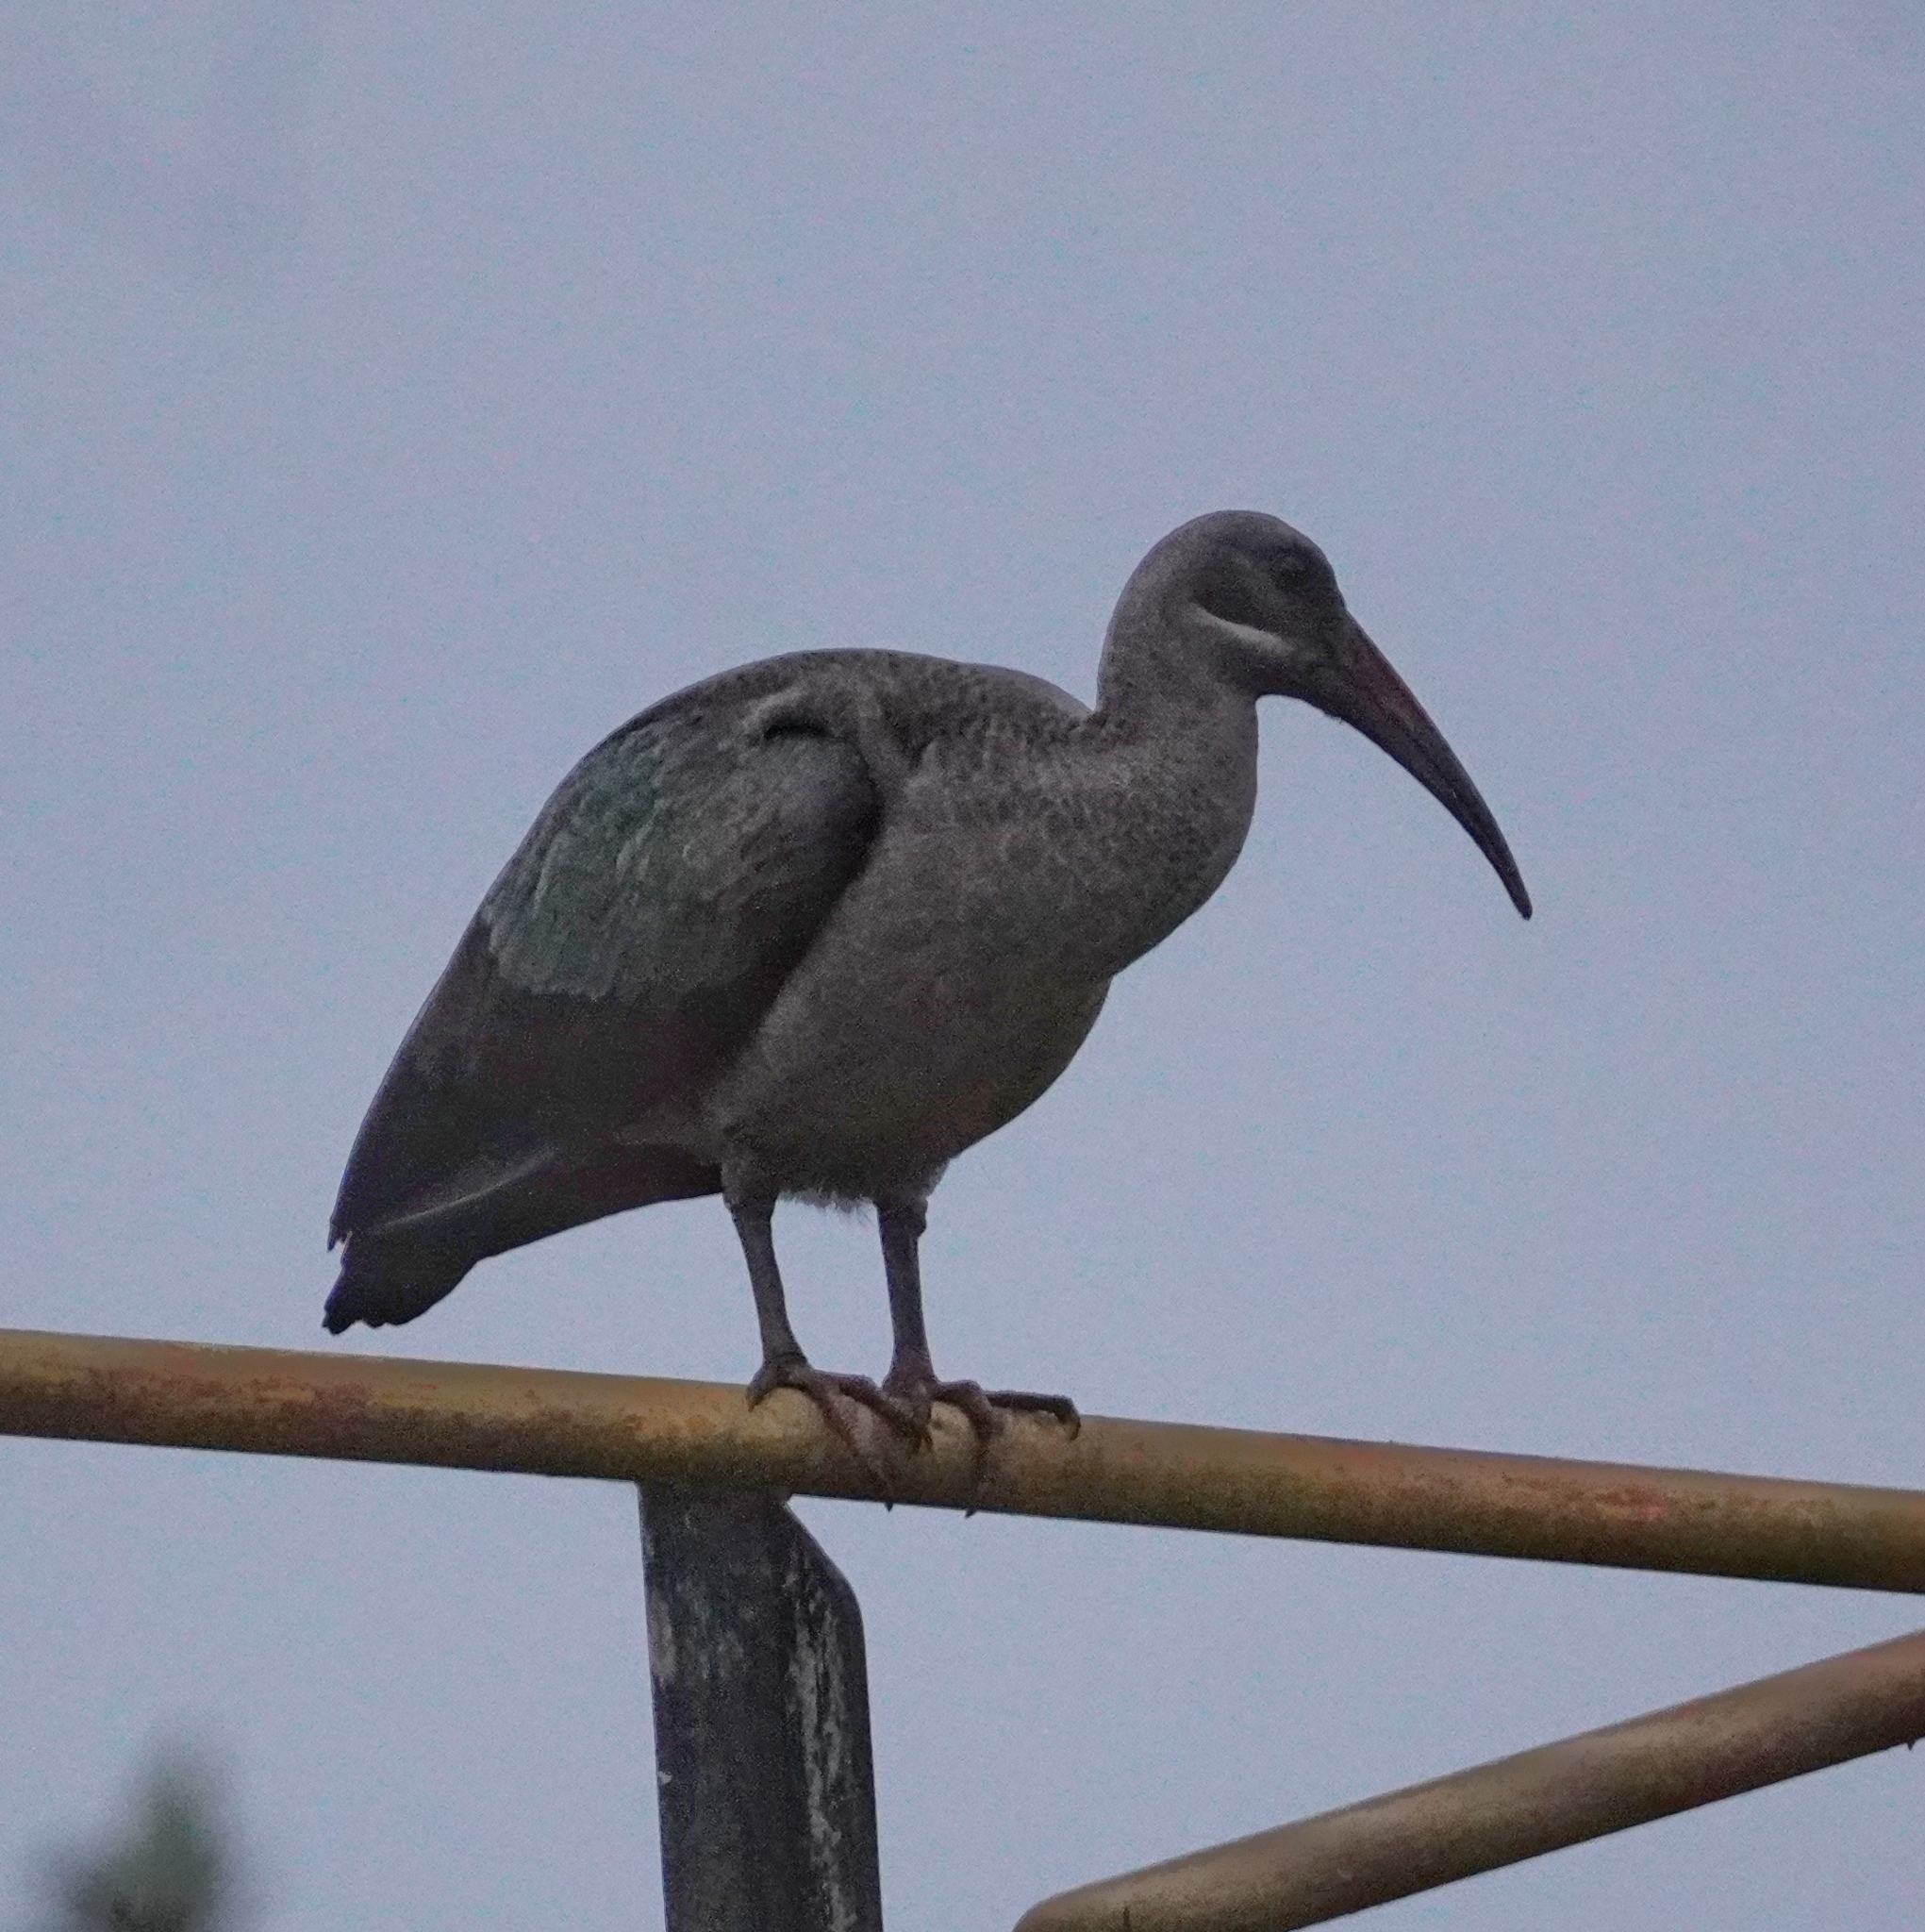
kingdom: Animalia
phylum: Chordata
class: Aves
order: Pelecaniformes
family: Threskiornithidae
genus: Bostrychia
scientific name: Bostrychia hagedash
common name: Hadada ibis
